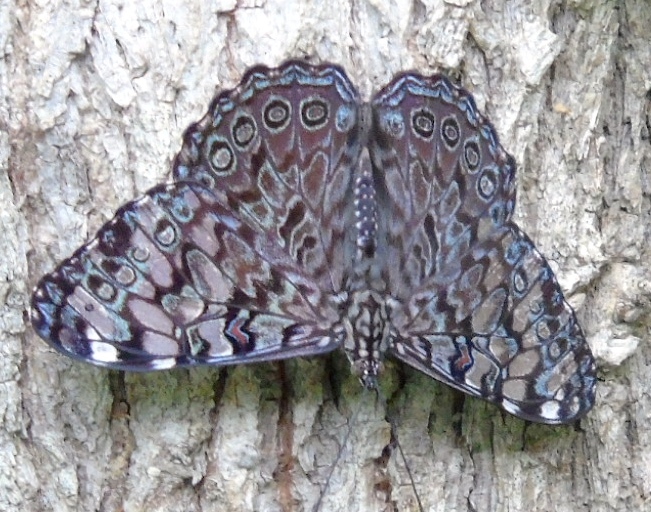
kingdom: Animalia
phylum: Arthropoda
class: Insecta
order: Lepidoptera
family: Nymphalidae
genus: Hamadryas
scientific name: Hamadryas guatemalena
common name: Guatemalan cracker
